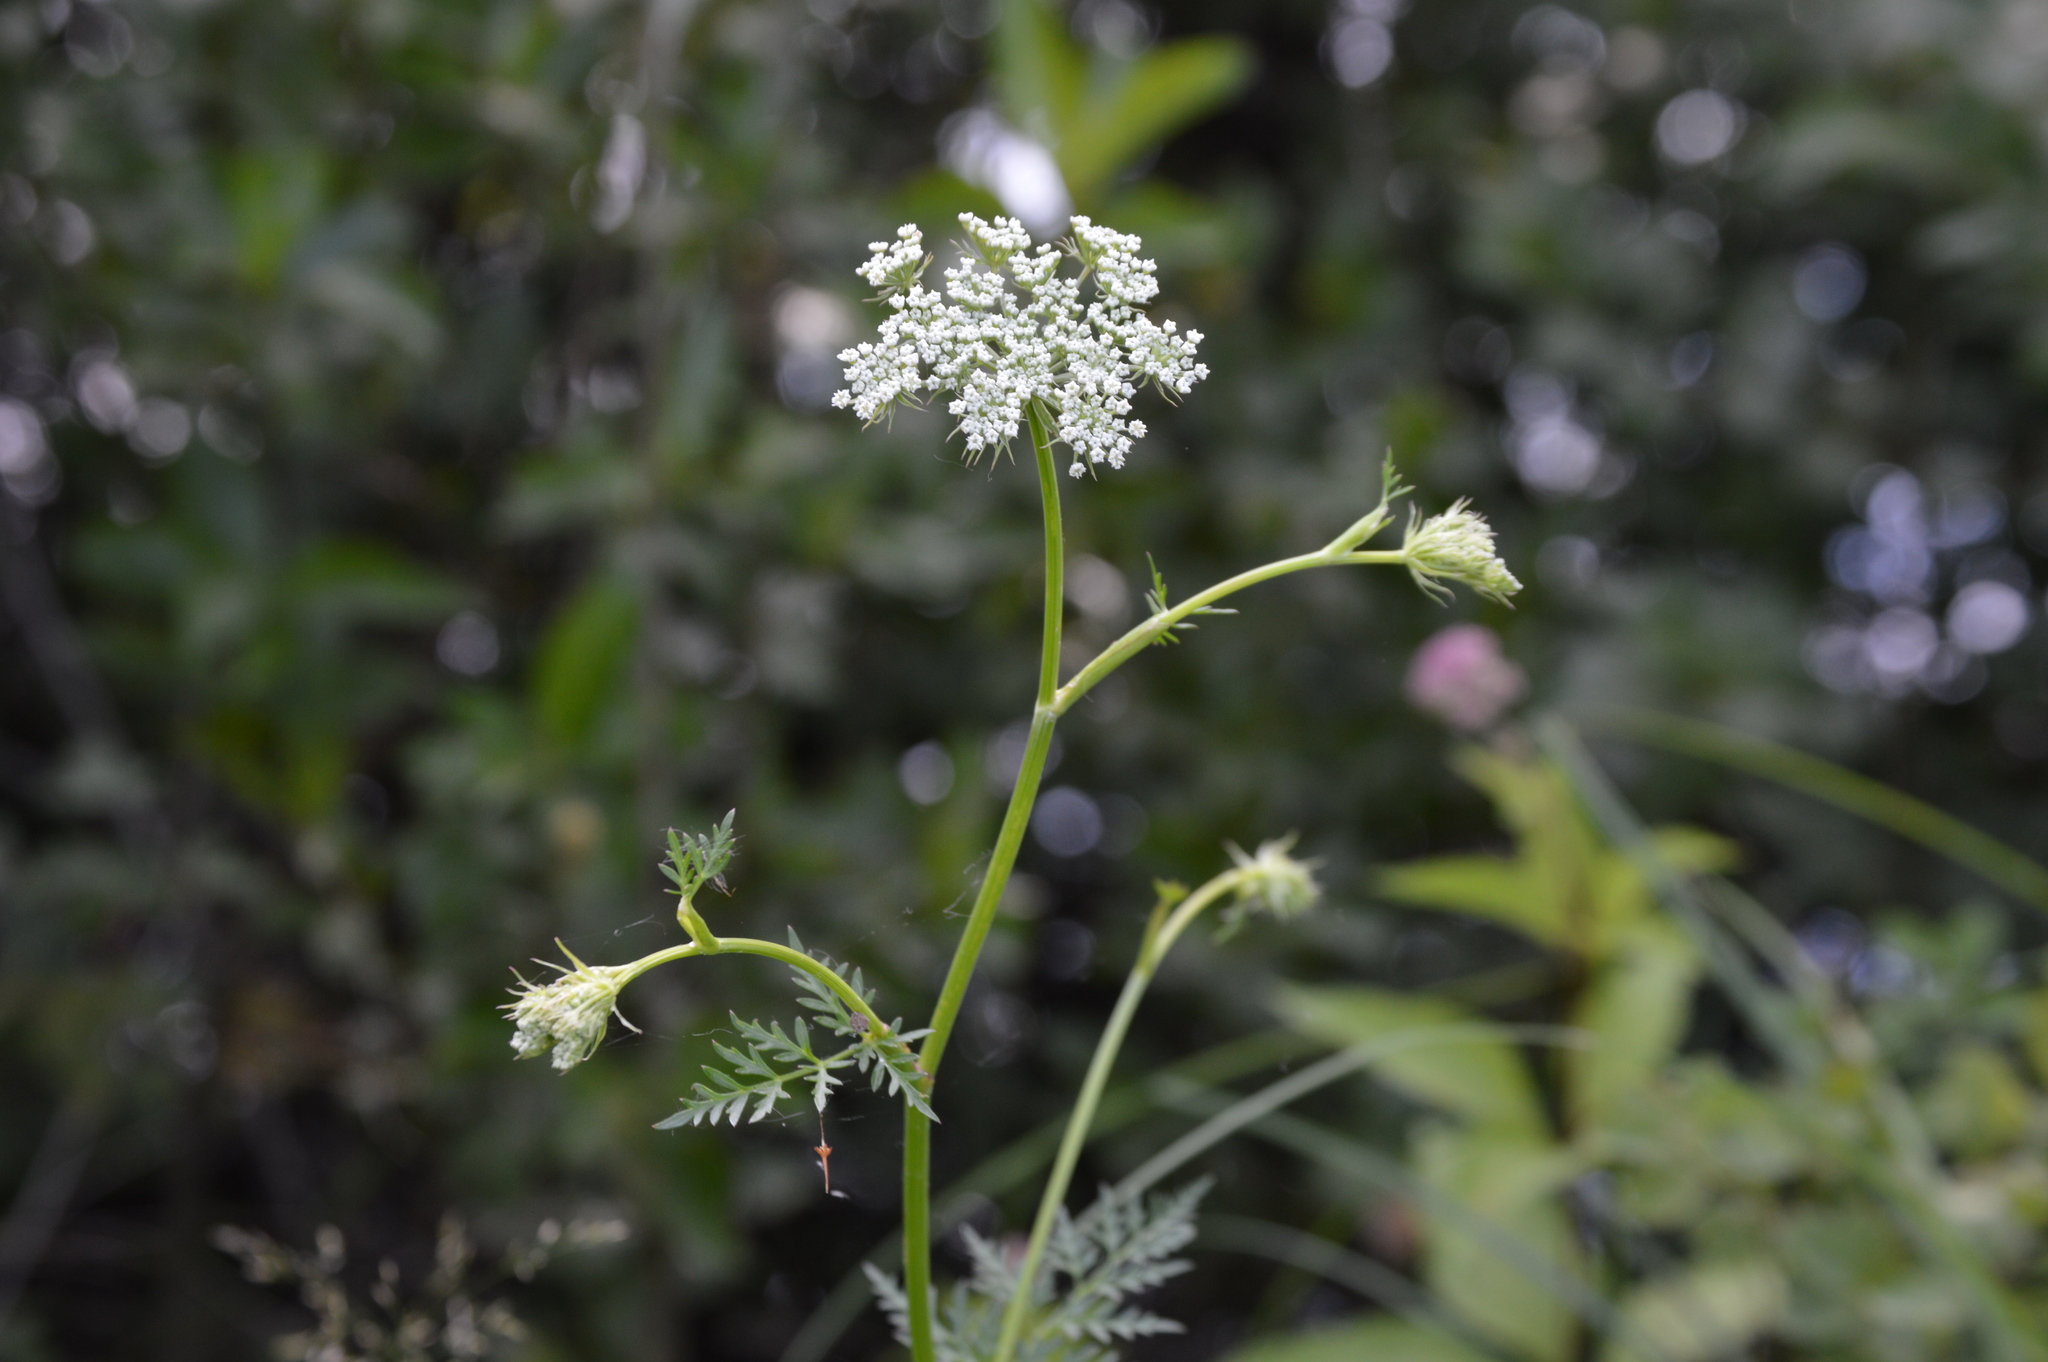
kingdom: Plantae
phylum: Tracheophyta
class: Magnoliopsida
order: Apiales
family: Apiaceae
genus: Daucus
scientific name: Daucus carota
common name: Wild carrot
